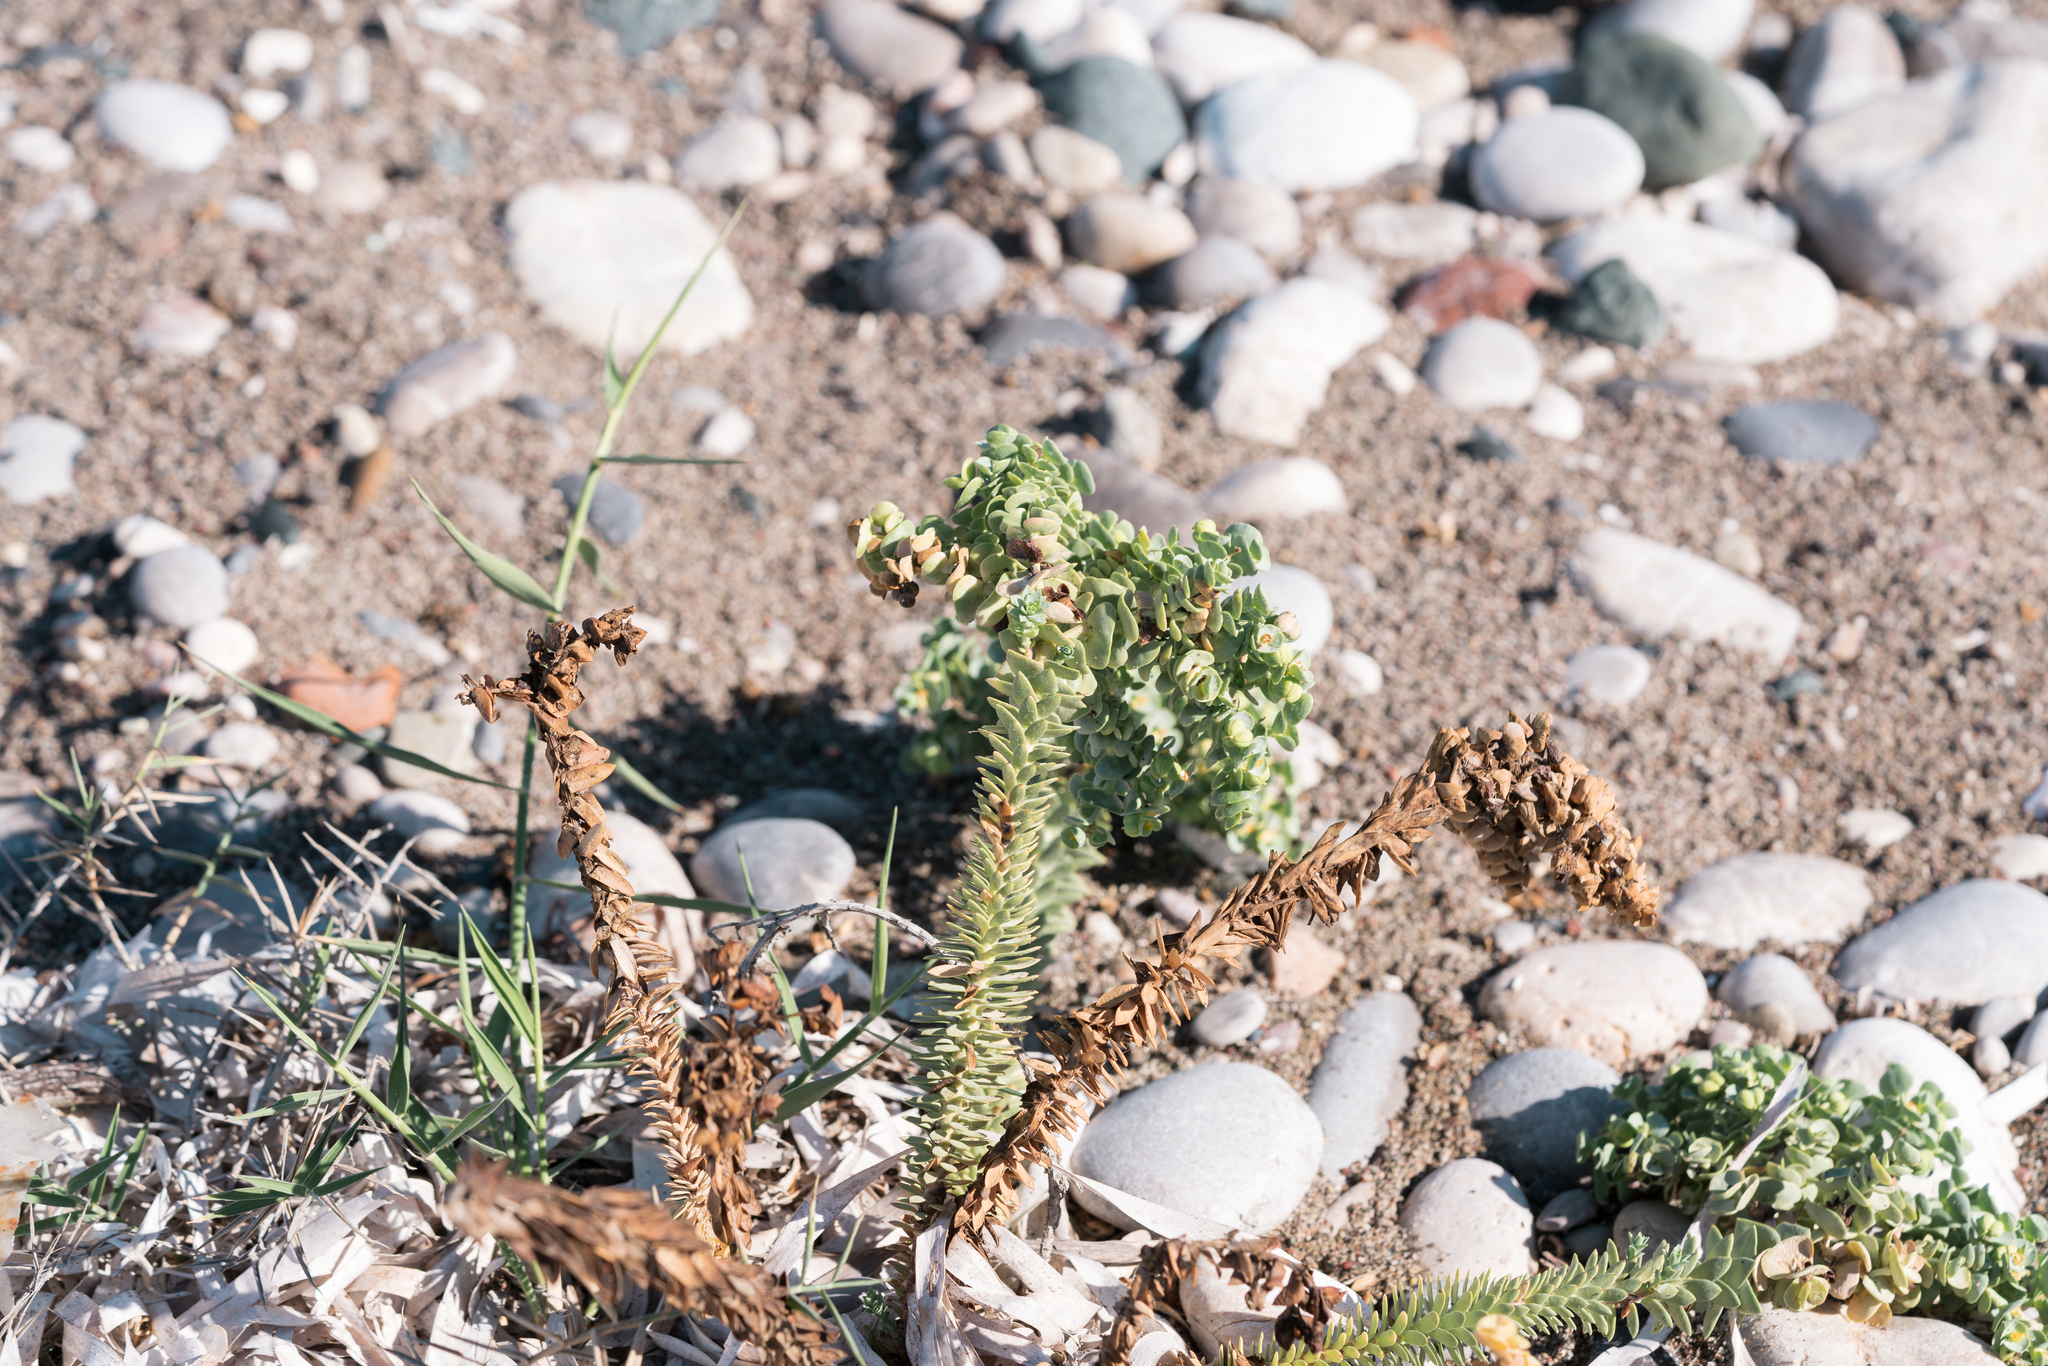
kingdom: Plantae
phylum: Tracheophyta
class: Magnoliopsida
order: Malpighiales
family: Euphorbiaceae
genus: Euphorbia
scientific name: Euphorbia paralias
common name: Sea spurge
